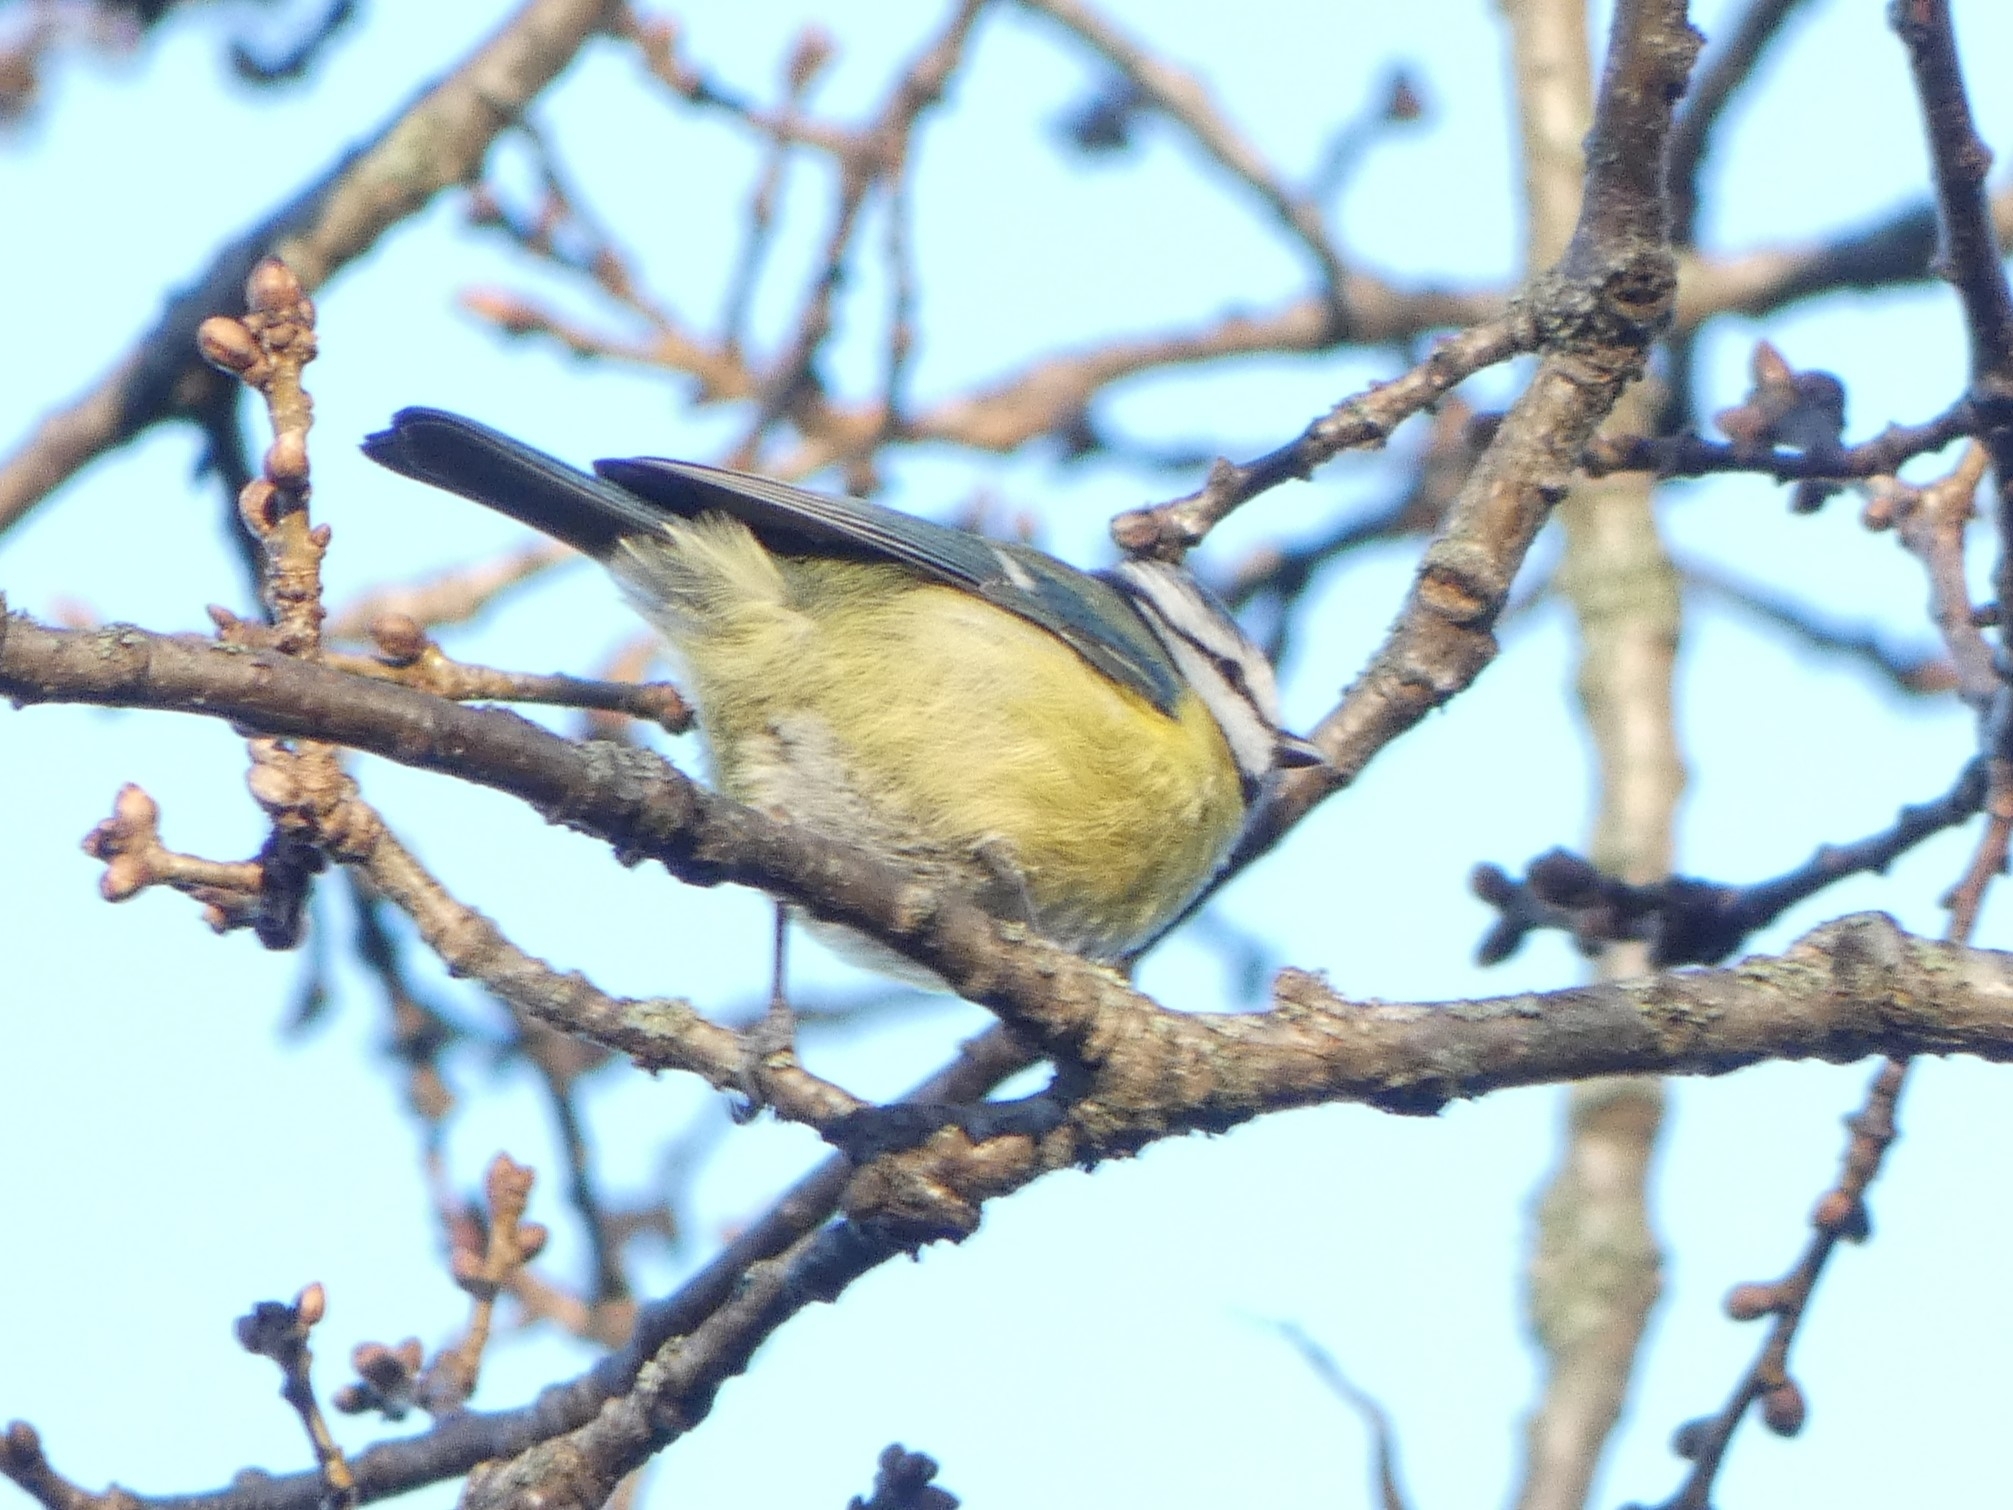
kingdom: Animalia
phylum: Chordata
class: Aves
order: Passeriformes
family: Paridae
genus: Cyanistes
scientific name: Cyanistes caeruleus
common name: Eurasian blue tit
